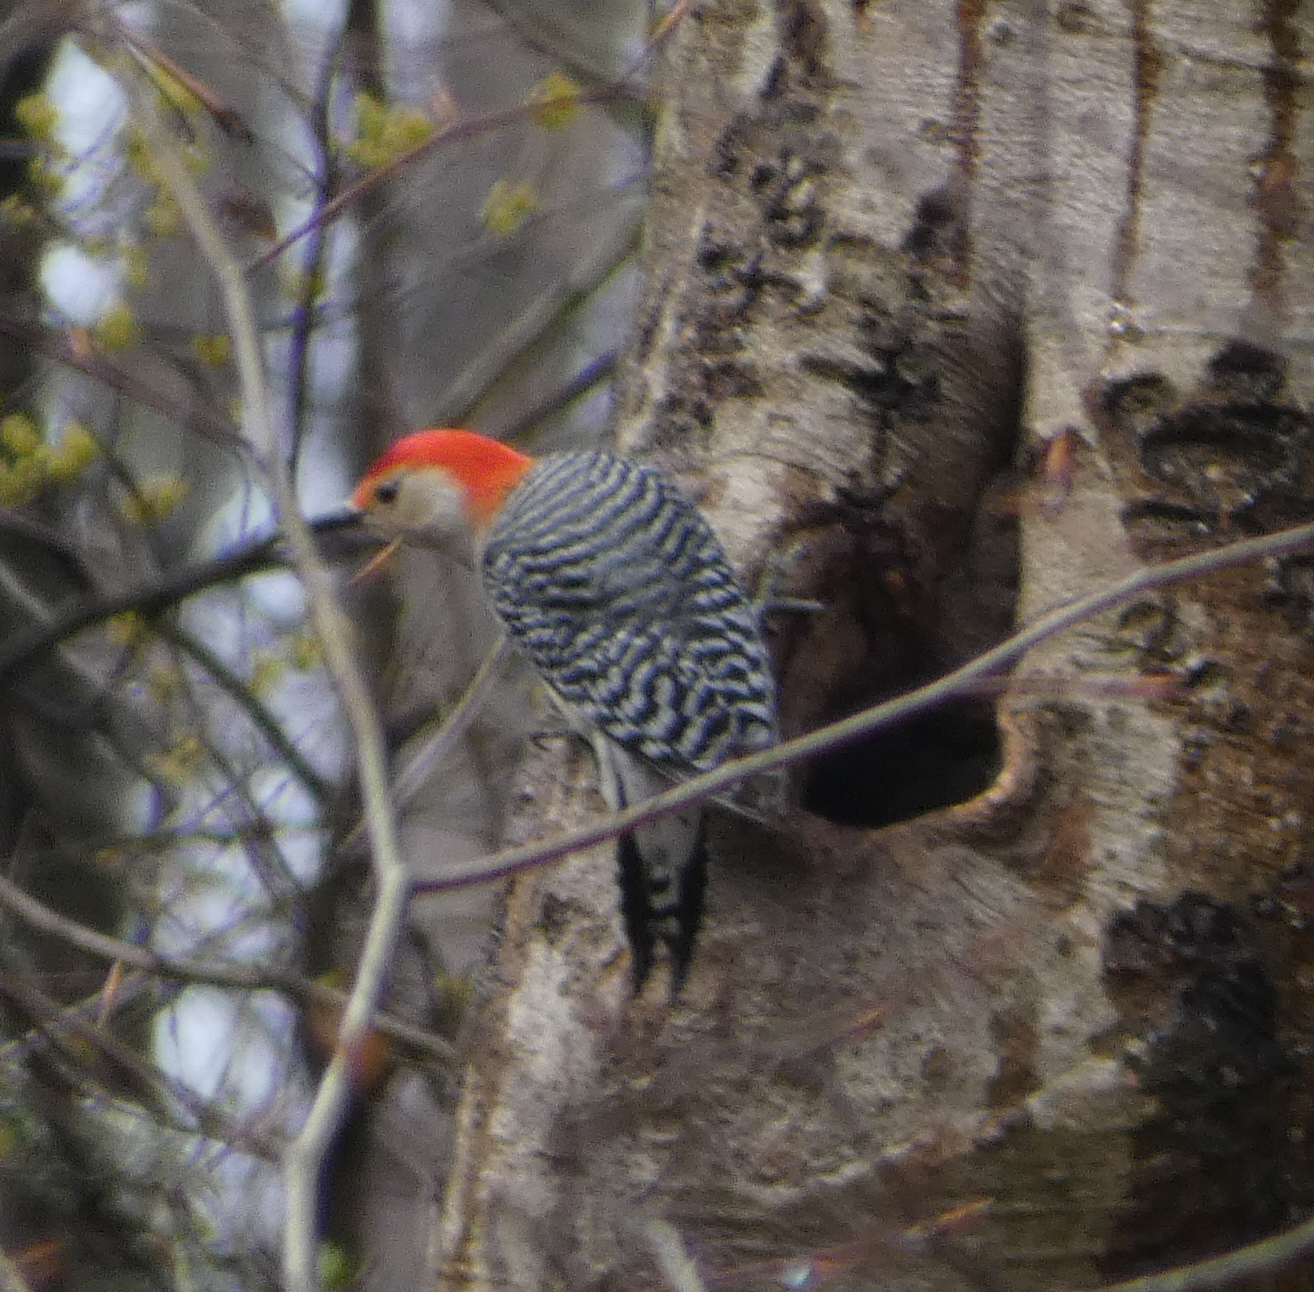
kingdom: Animalia
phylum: Chordata
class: Aves
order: Piciformes
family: Picidae
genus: Melanerpes
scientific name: Melanerpes carolinus
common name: Red-bellied woodpecker
